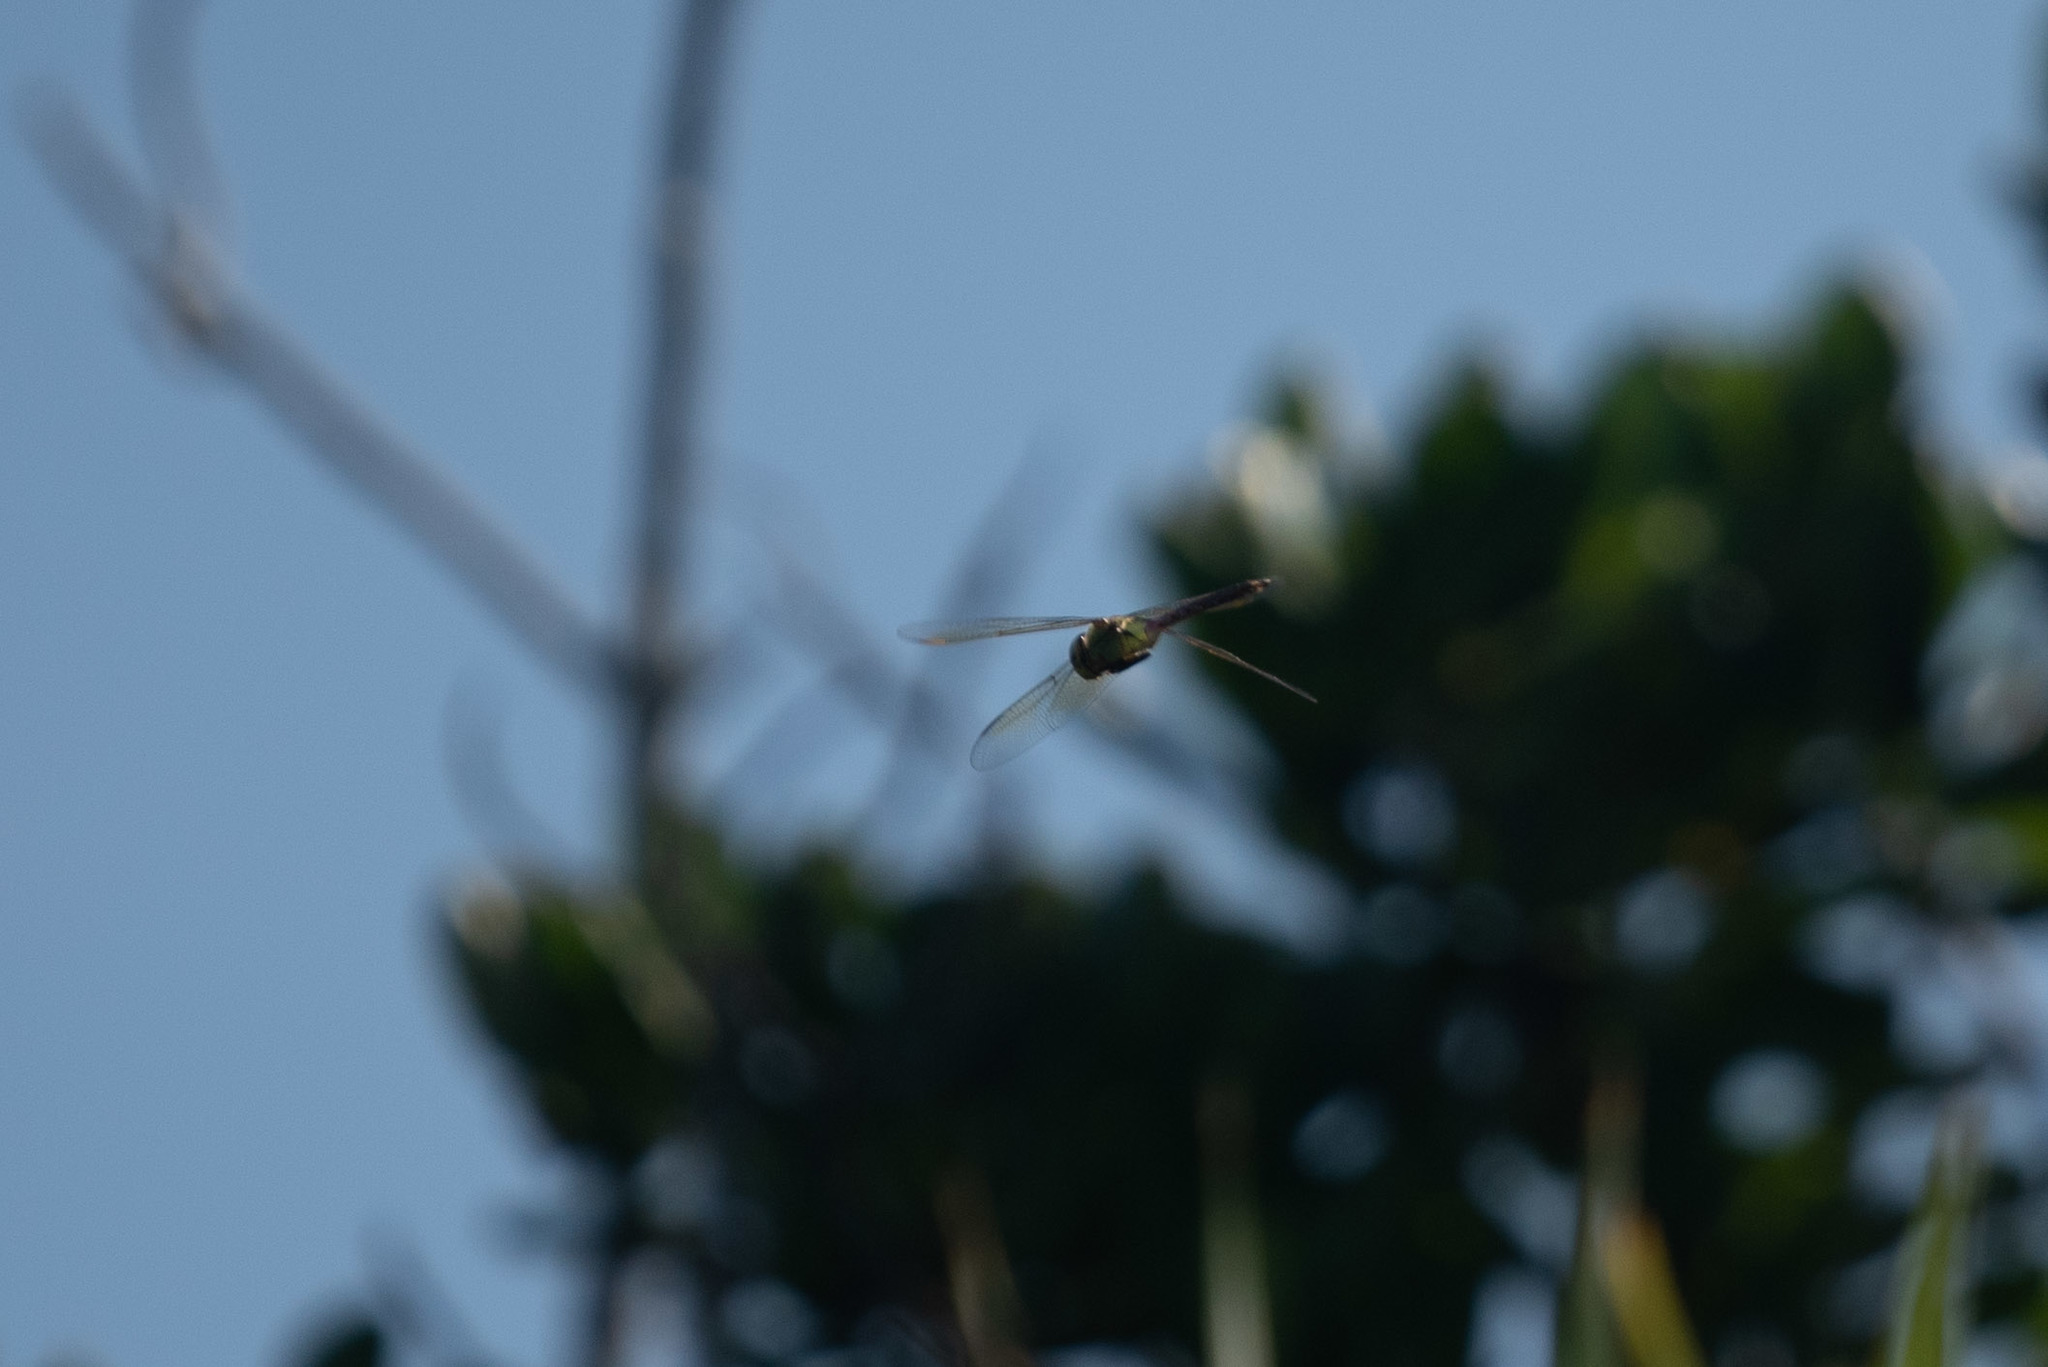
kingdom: Animalia
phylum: Arthropoda
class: Insecta
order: Odonata
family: Aeshnidae
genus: Anax
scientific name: Anax junius
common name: Common green darner
